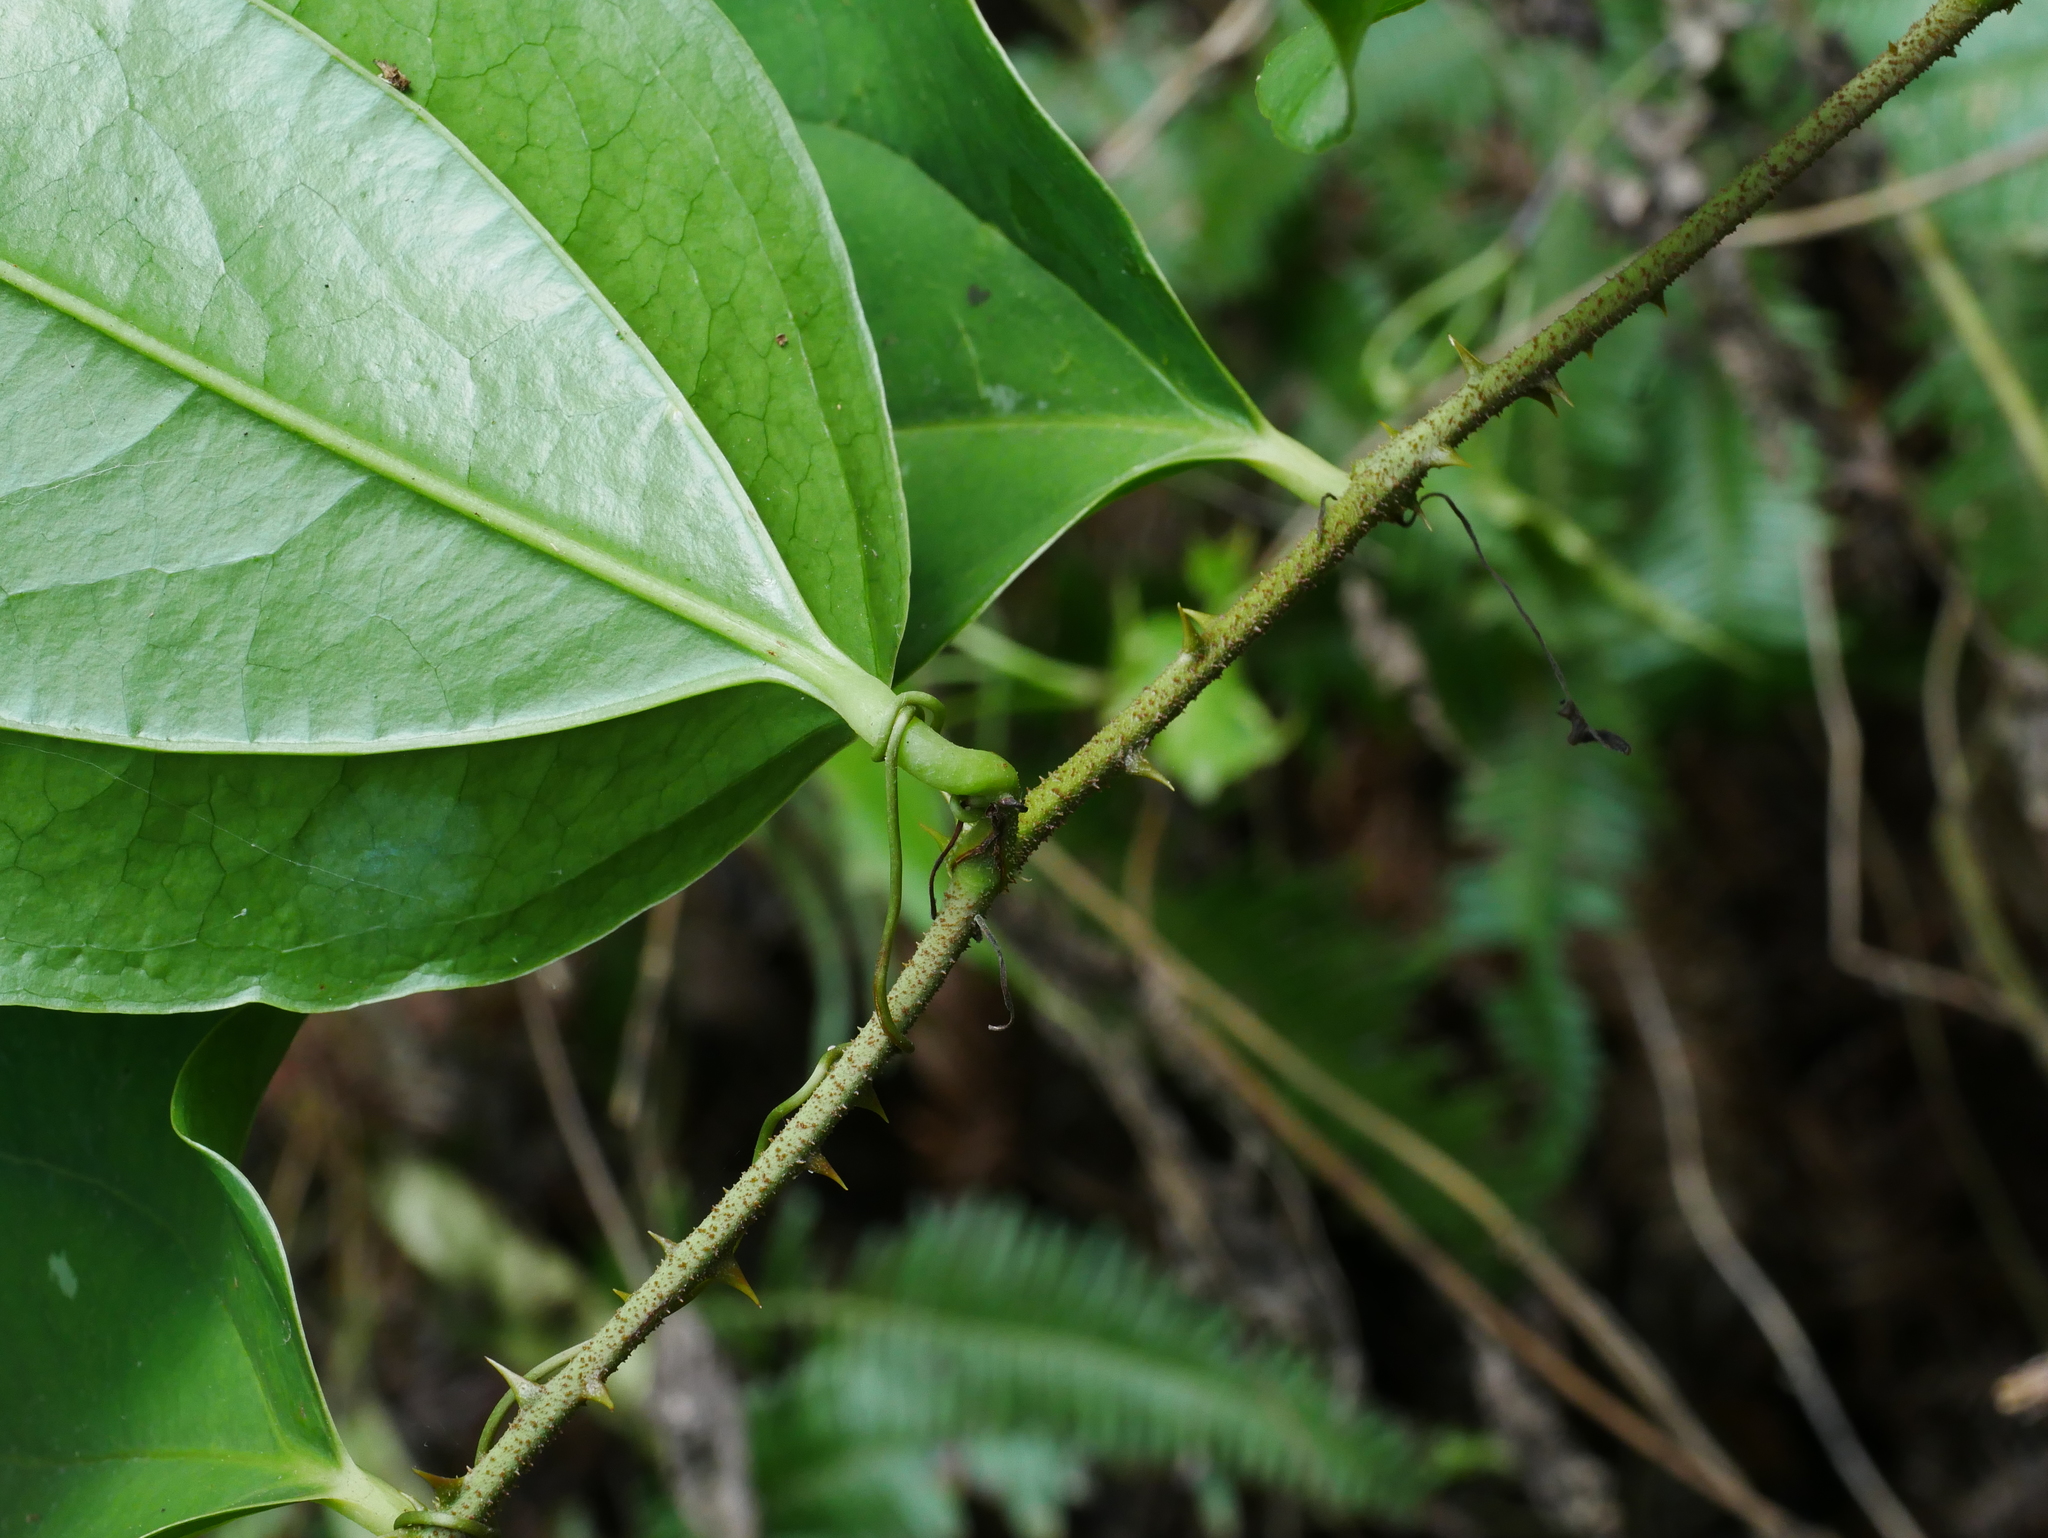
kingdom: Plantae
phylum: Tracheophyta
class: Liliopsida
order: Liliales
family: Smilacaceae
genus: Smilax
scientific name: Smilax aspericaulis
